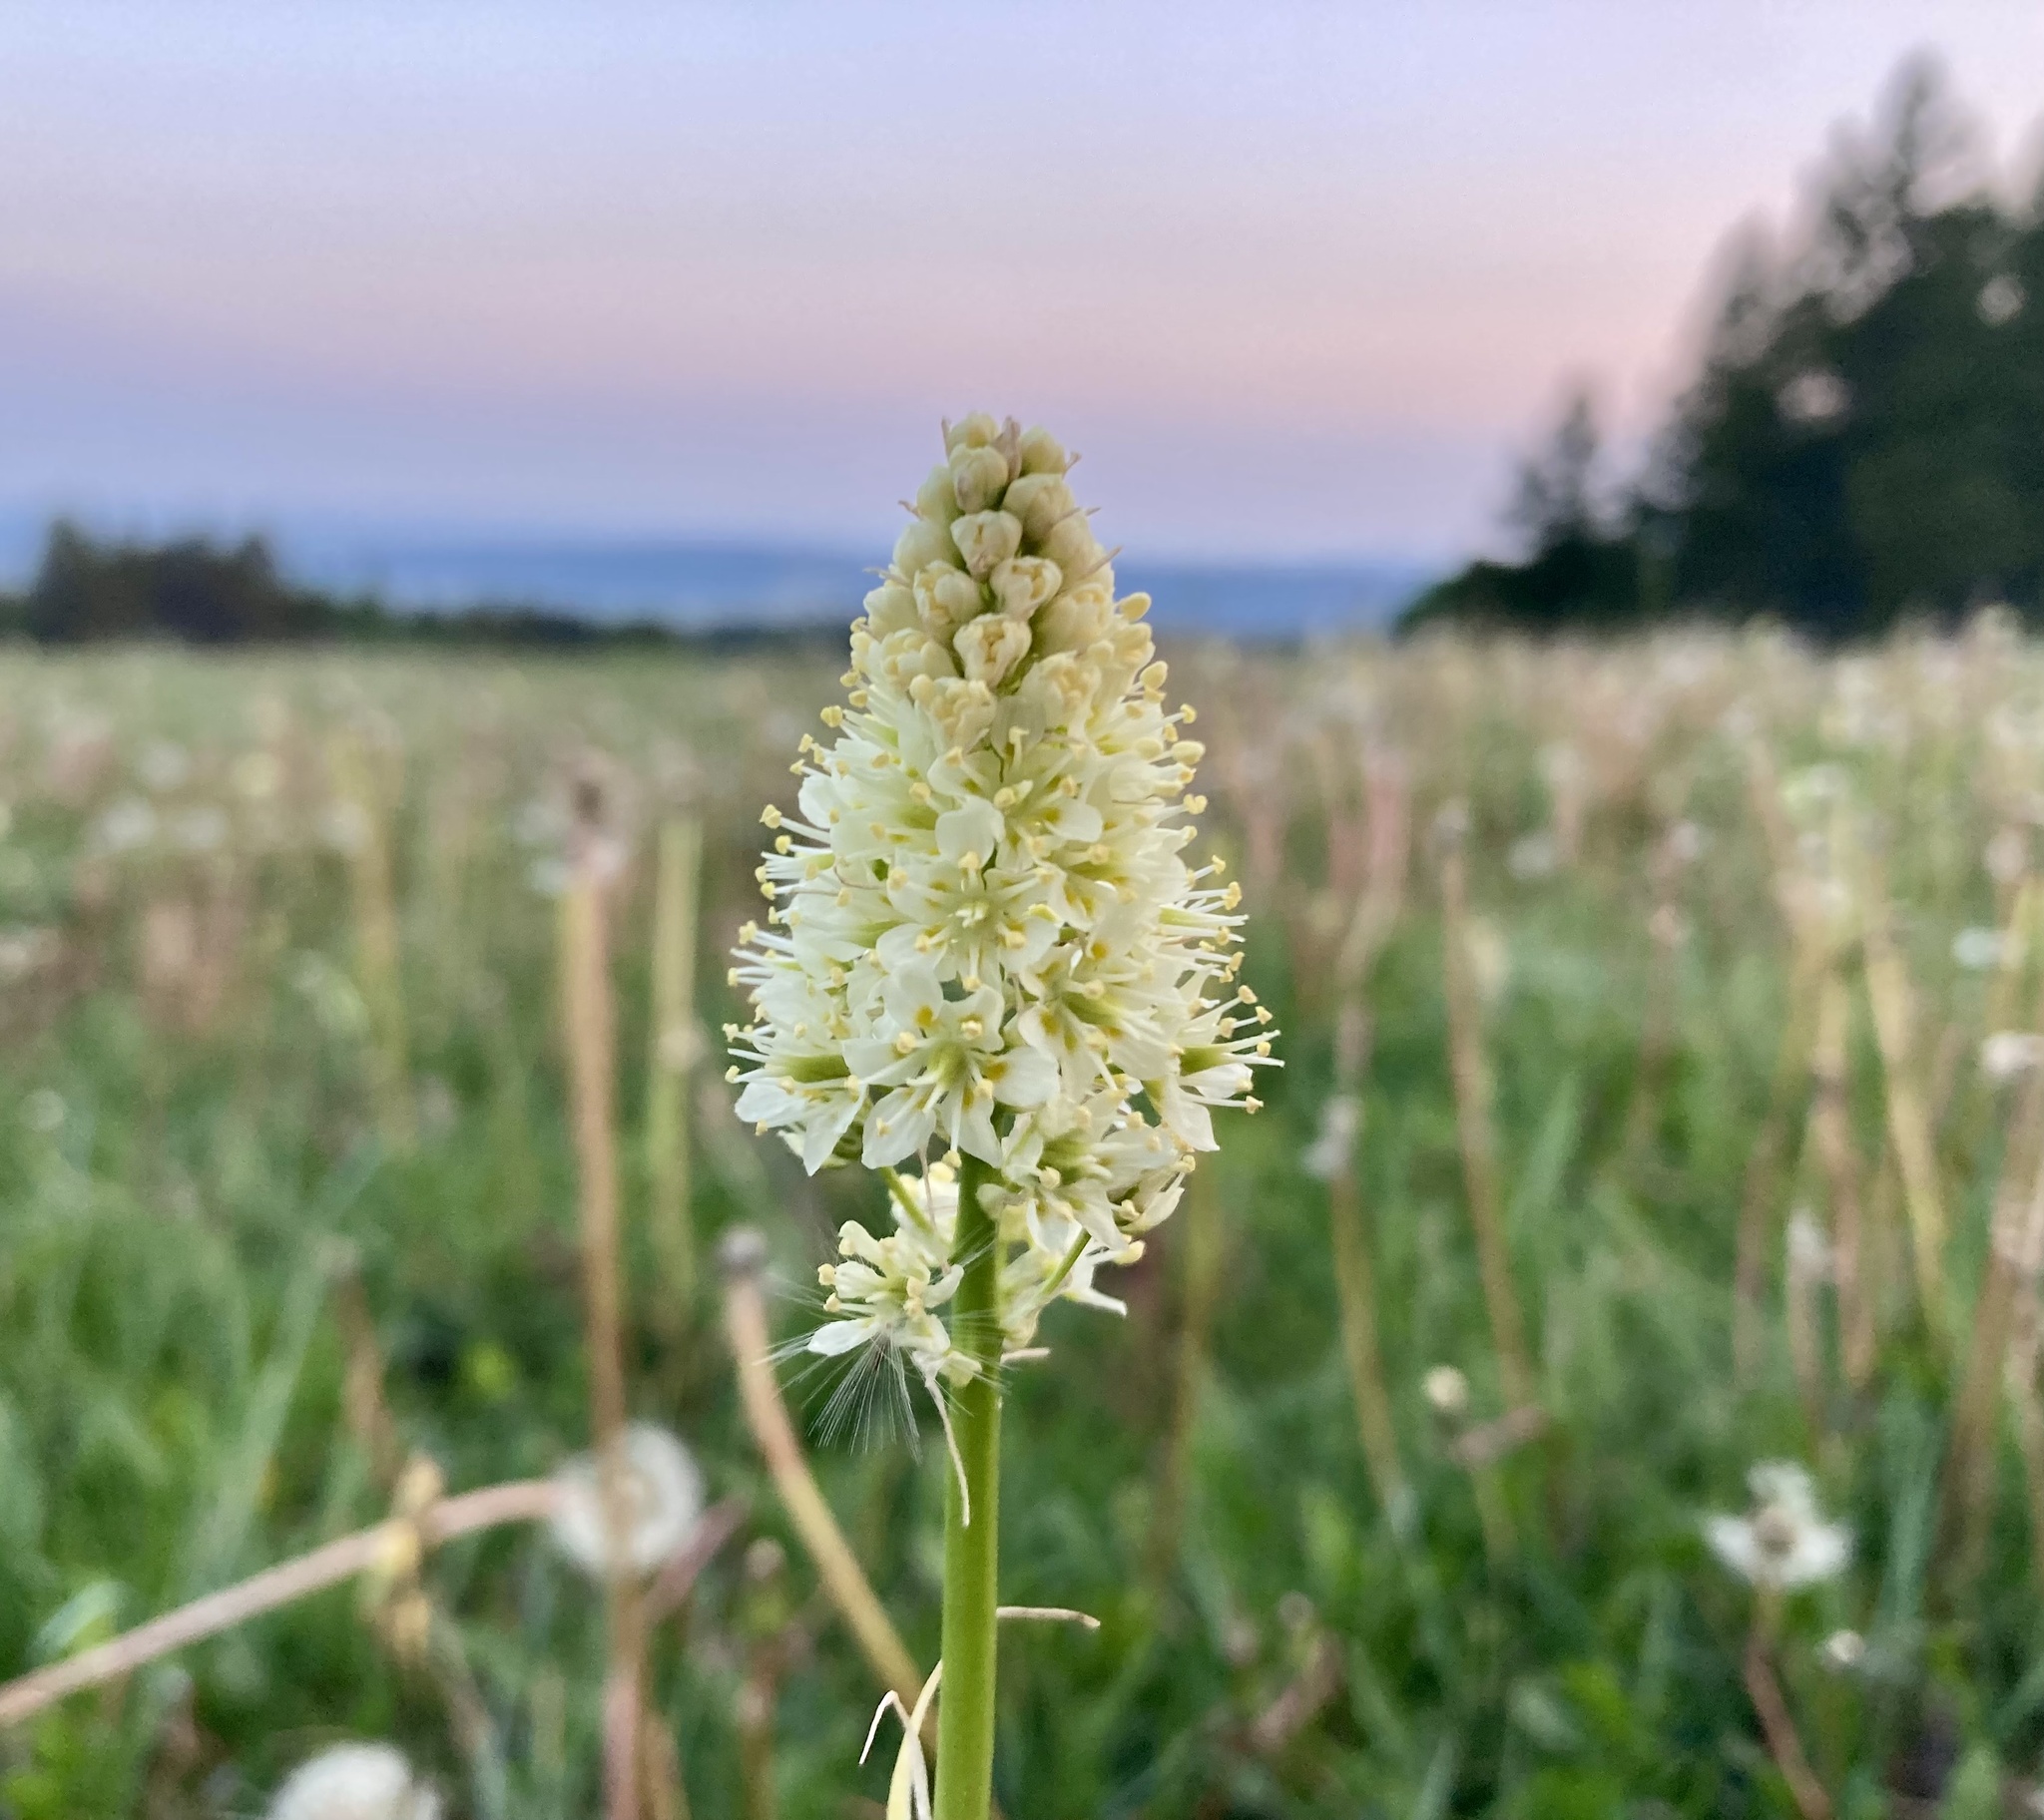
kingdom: Plantae
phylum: Tracheophyta
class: Liliopsida
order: Liliales
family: Melanthiaceae
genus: Toxicoscordion
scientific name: Toxicoscordion venenosum
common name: Meadow death camas
